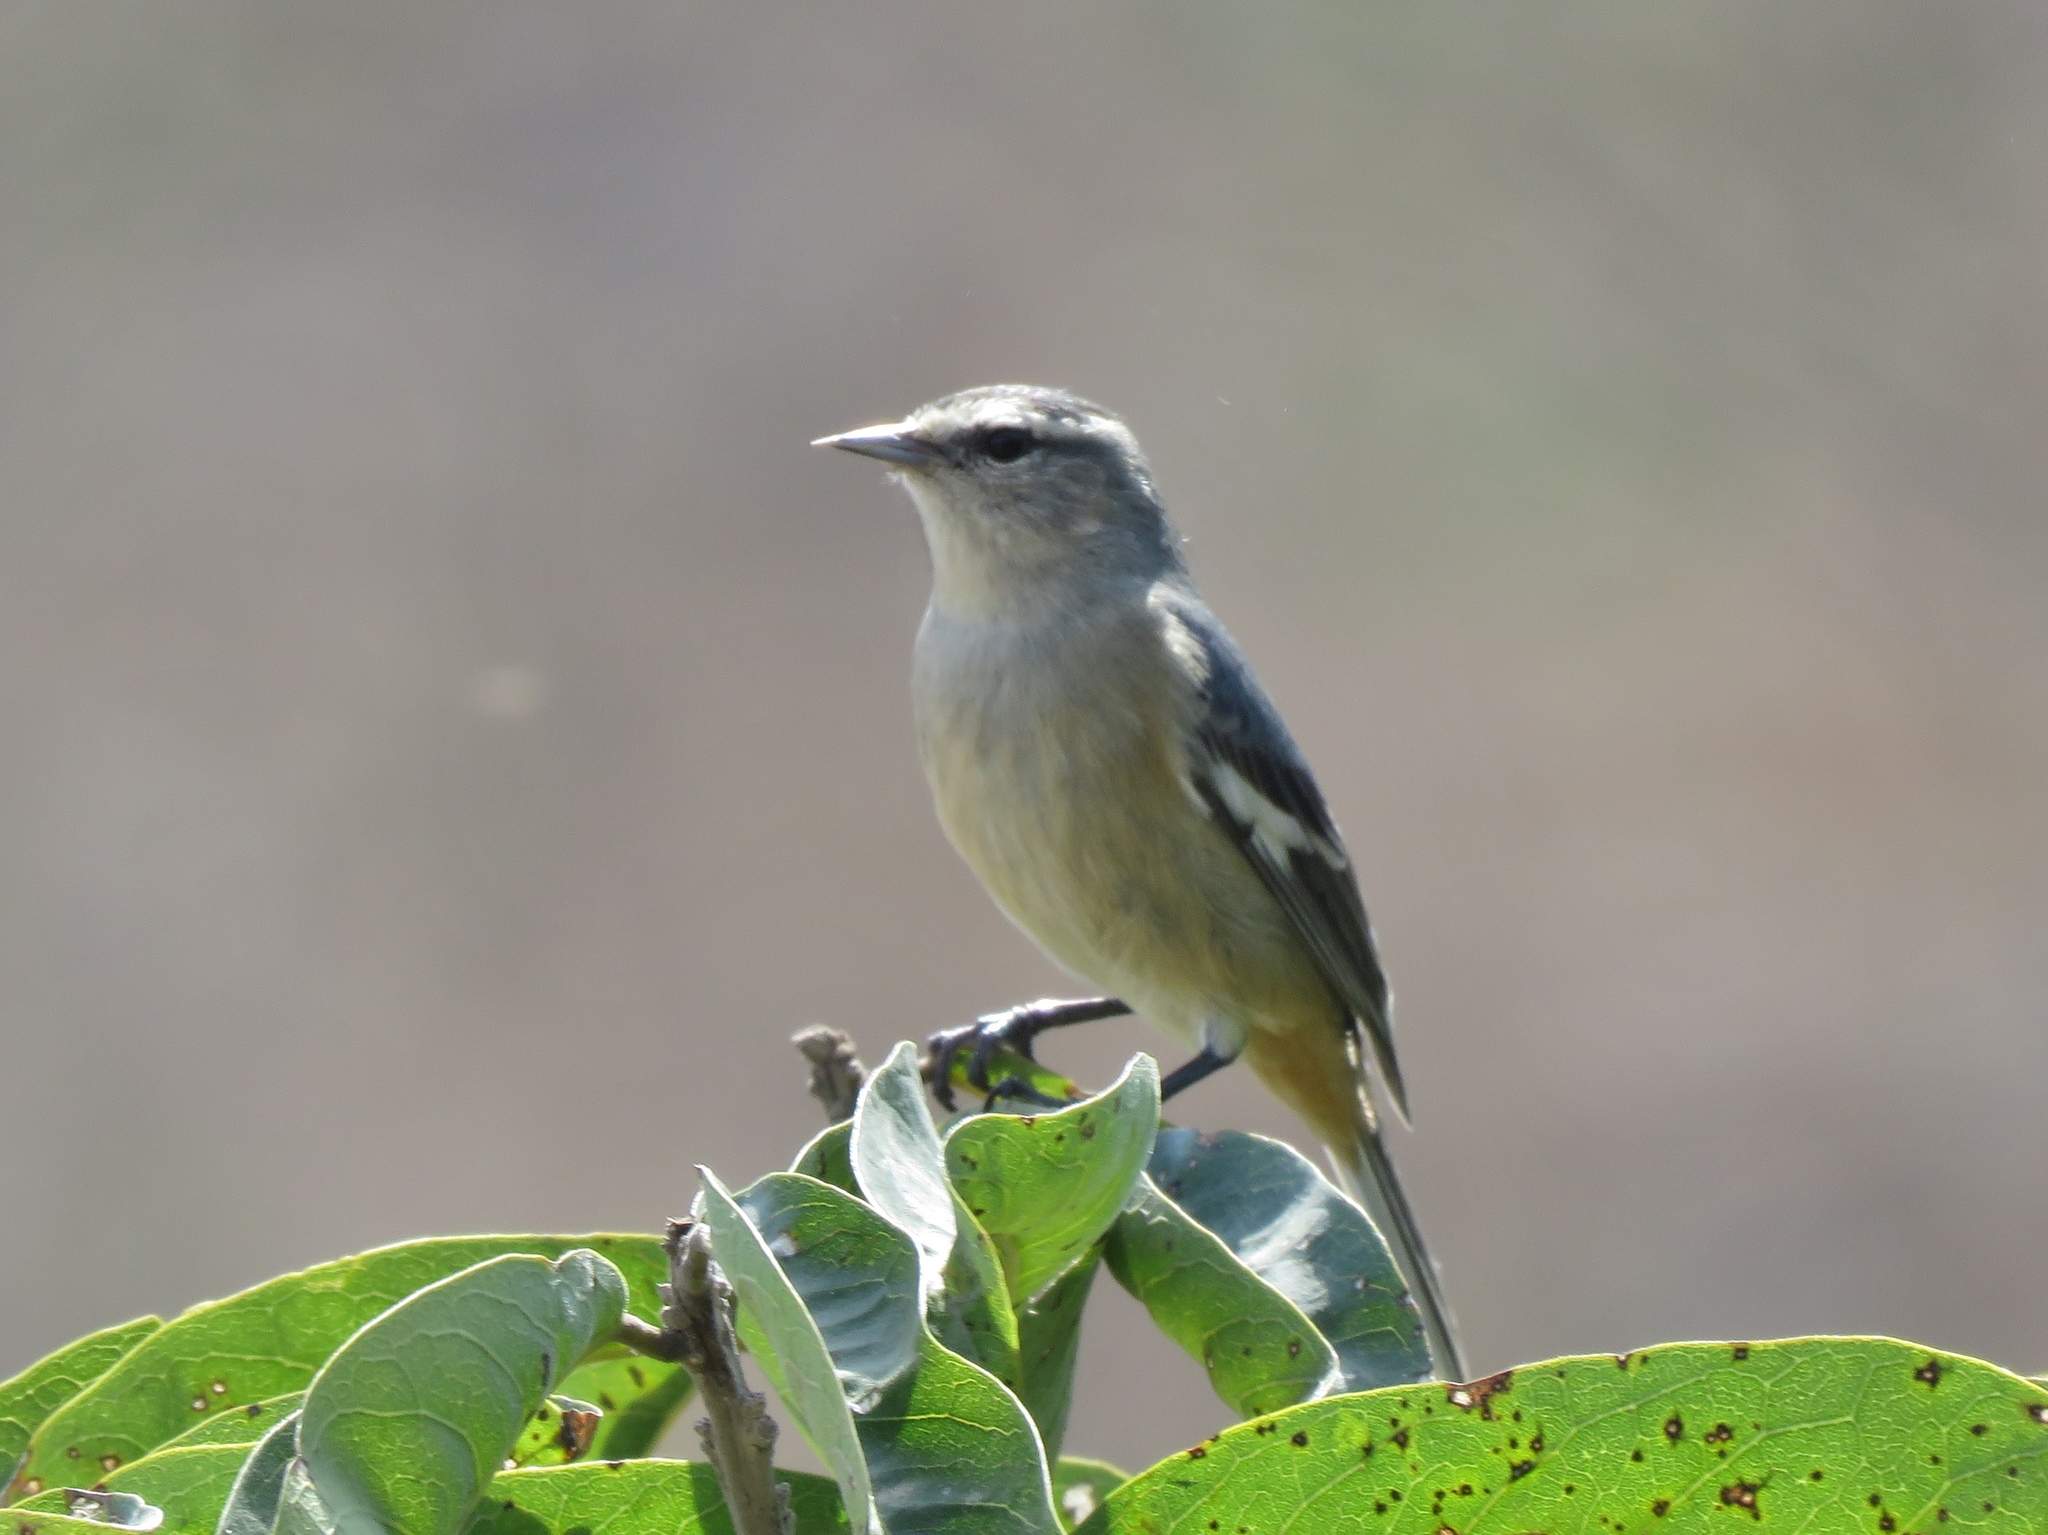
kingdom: Animalia
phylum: Chordata
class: Aves
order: Passeriformes
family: Thraupidae
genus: Conirostrum
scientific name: Conirostrum cinereum
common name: Cinereous conebill
